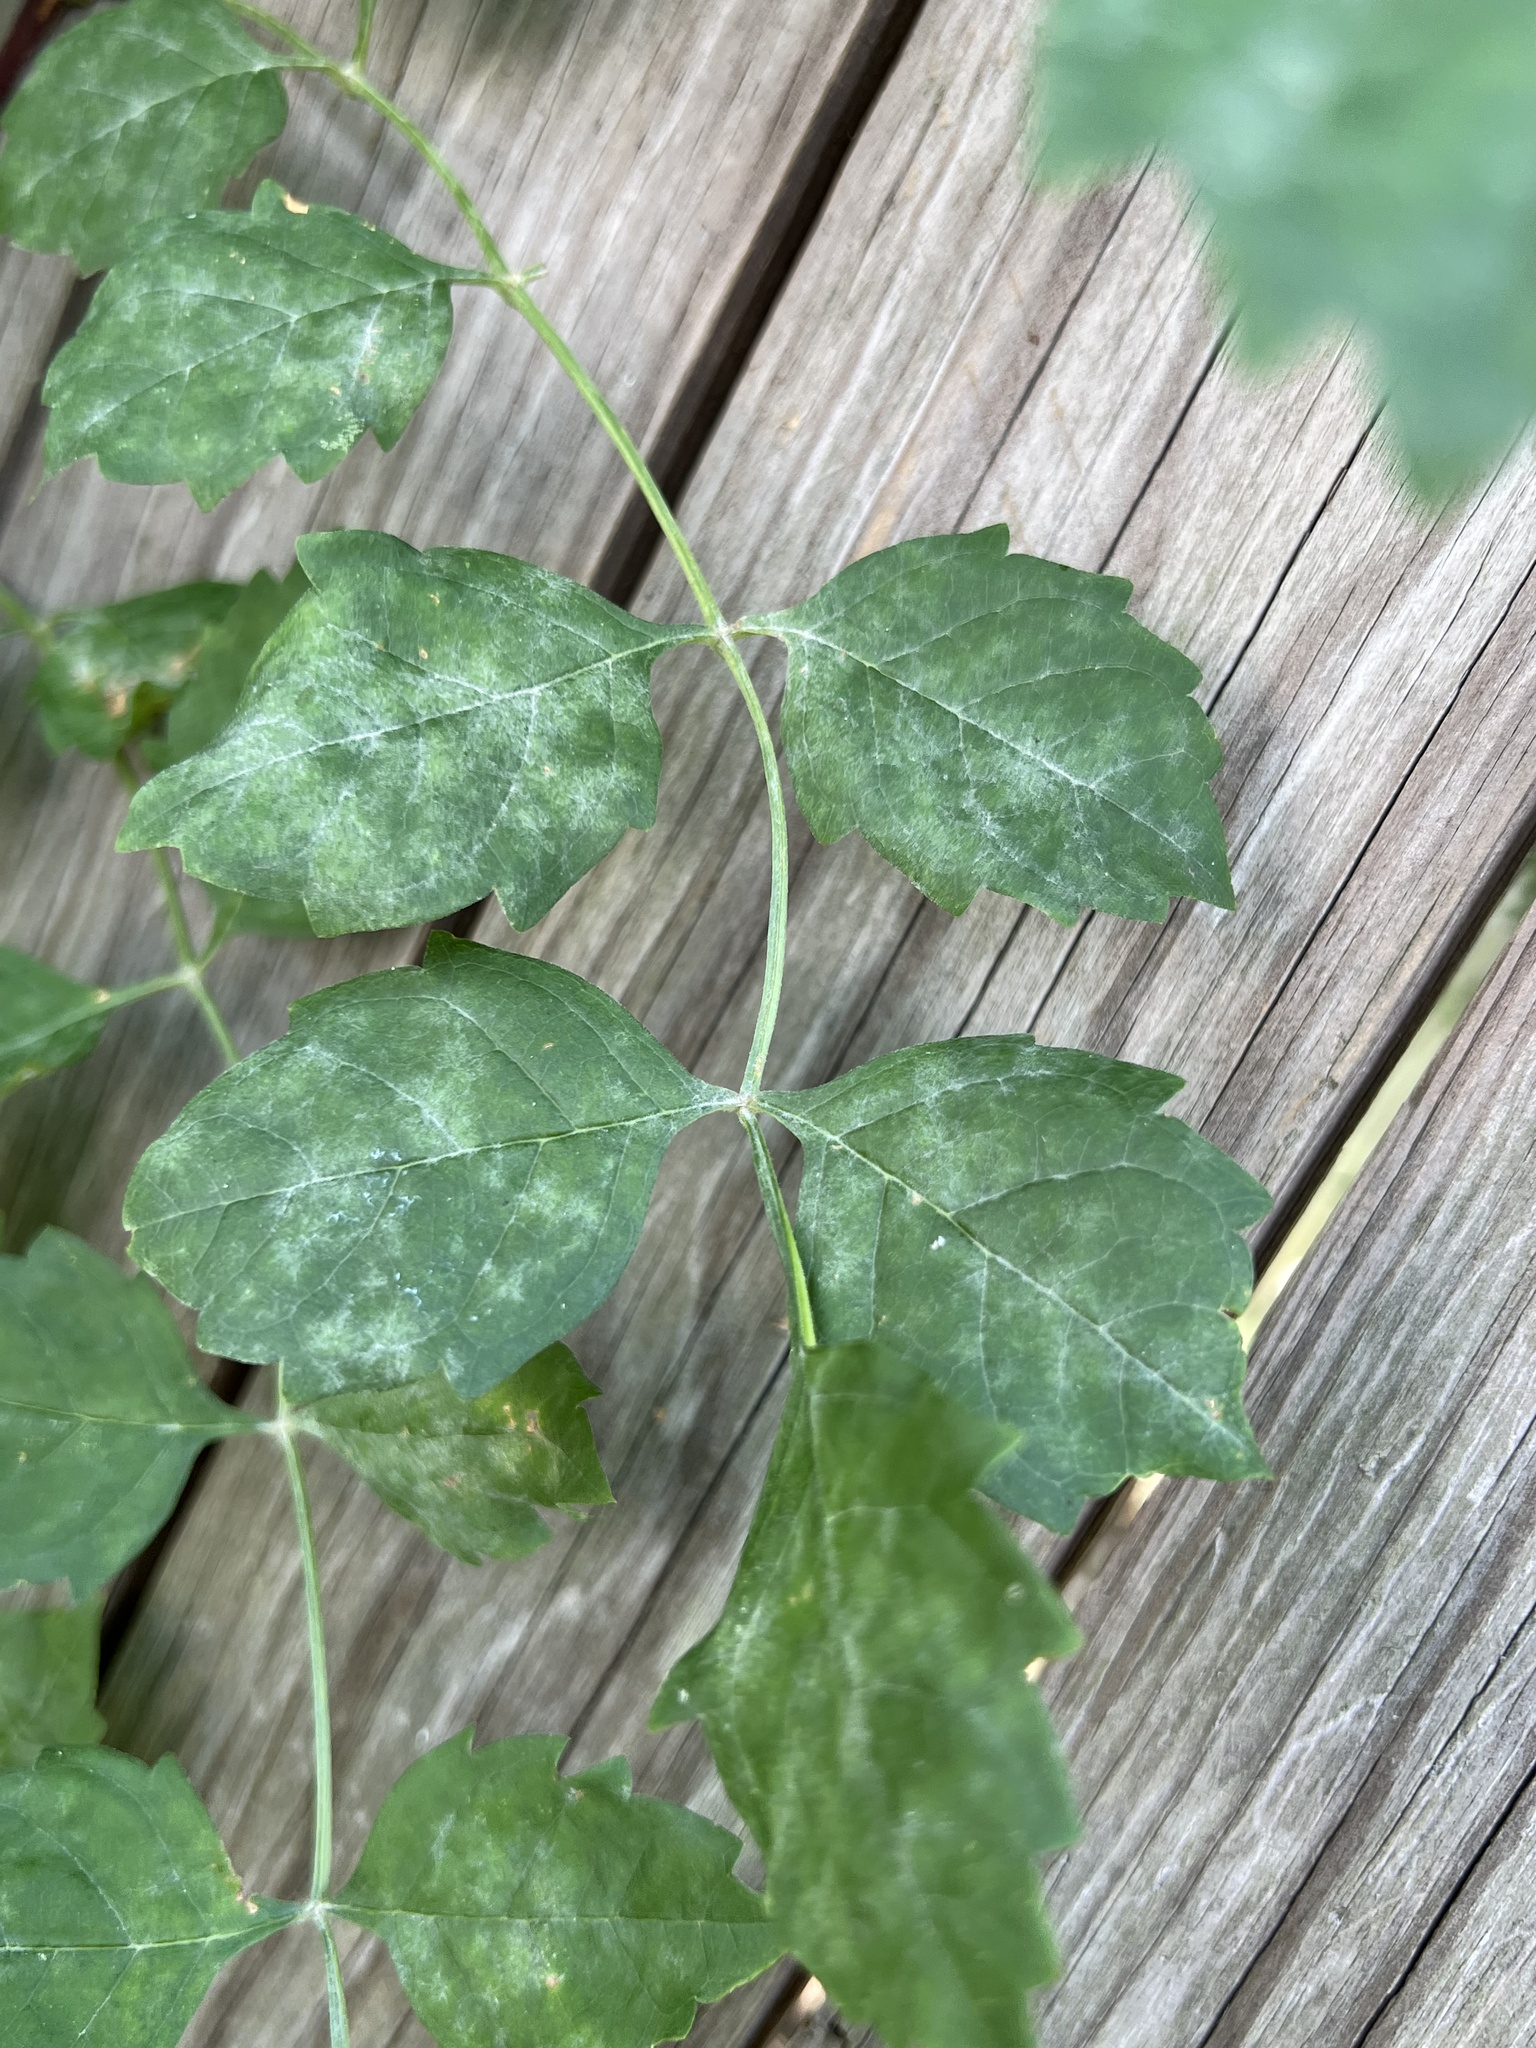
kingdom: Fungi
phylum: Ascomycota
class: Leotiomycetes
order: Helotiales
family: Erysiphaceae
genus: Erysiphe
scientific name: Erysiphe peckii
